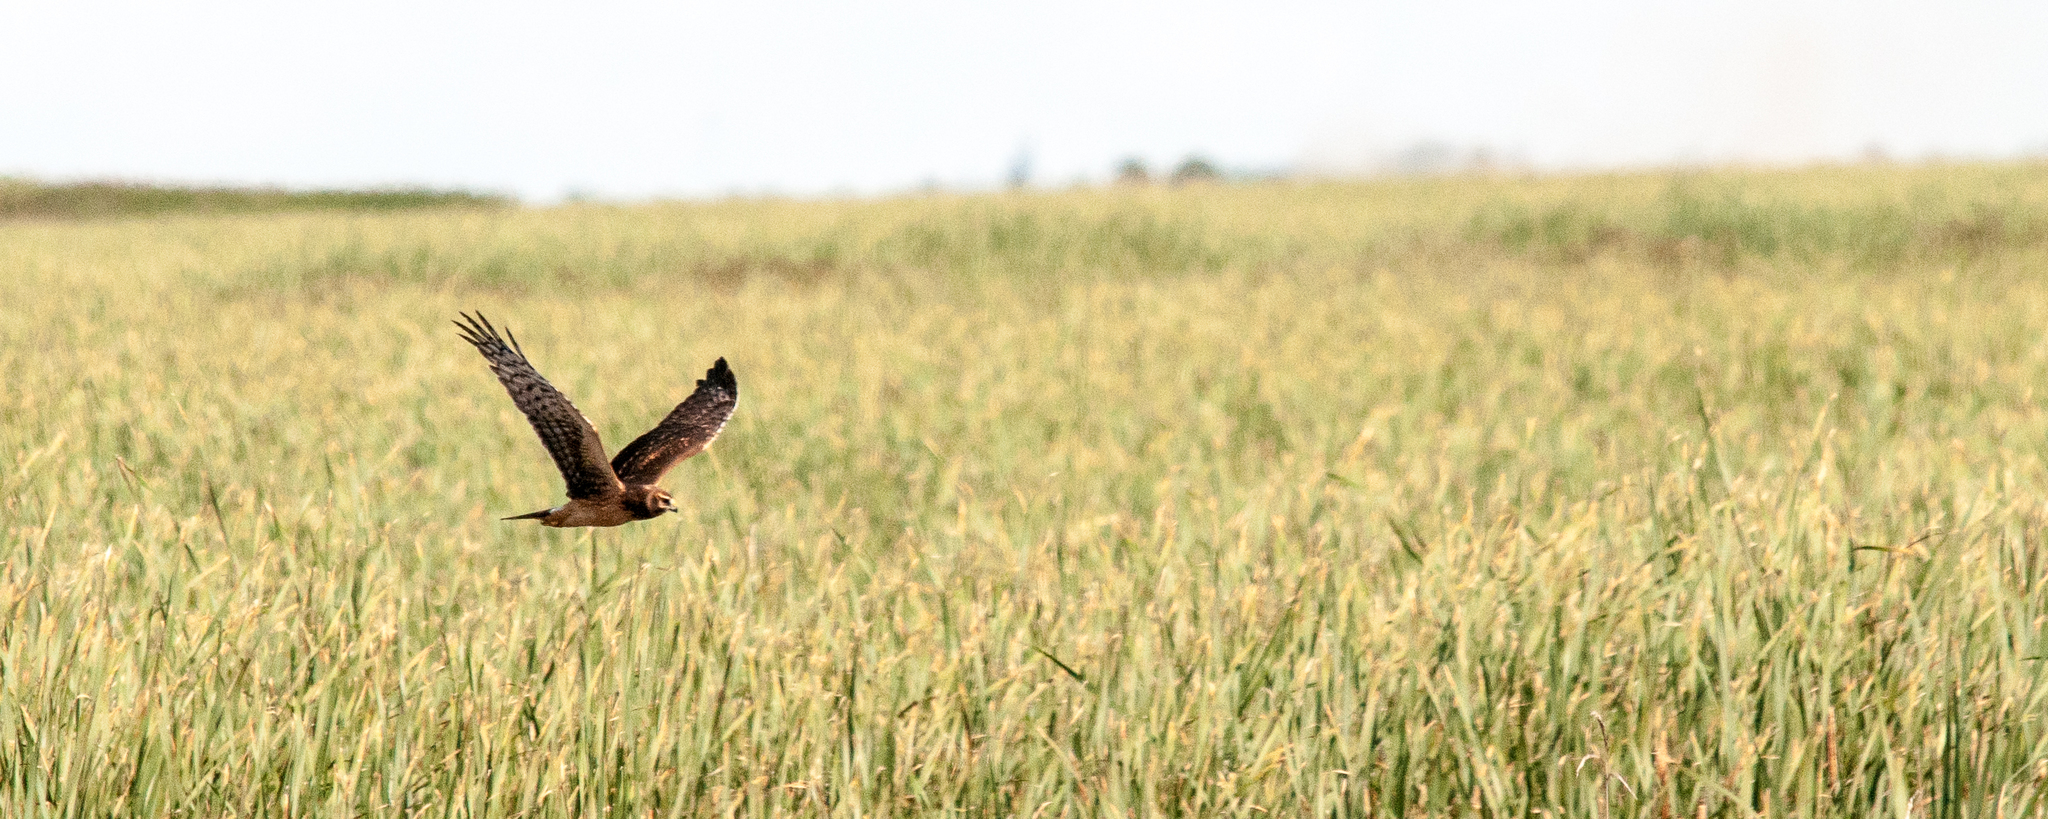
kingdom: Animalia
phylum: Chordata
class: Aves
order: Accipitriformes
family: Accipitridae
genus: Circus
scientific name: Circus cyaneus
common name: Hen harrier
